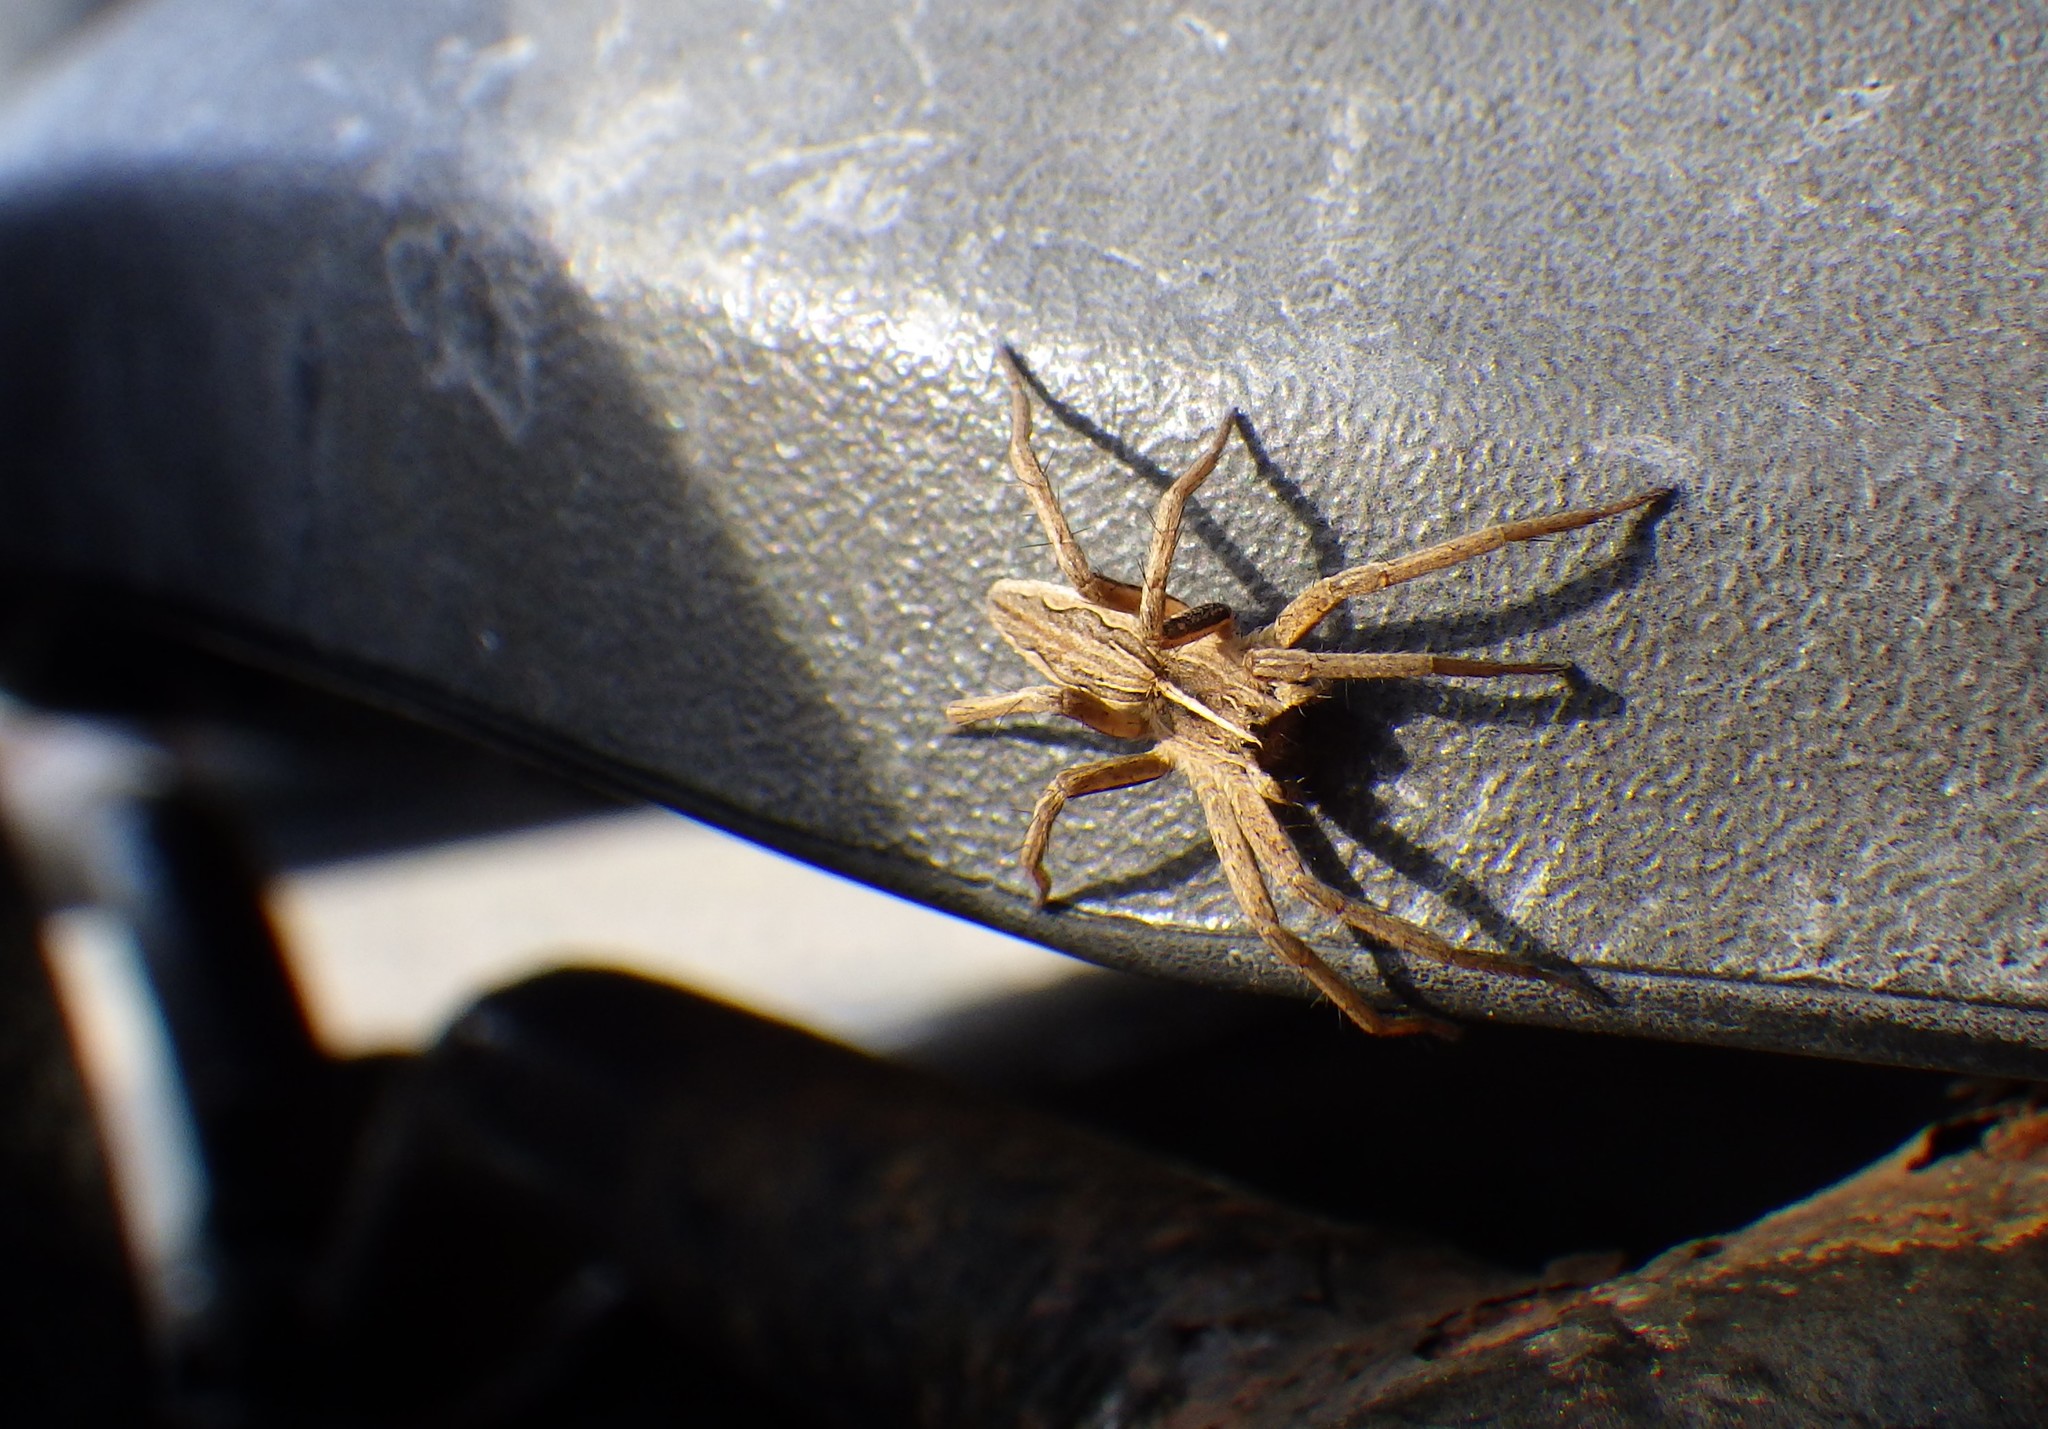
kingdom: Animalia
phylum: Arthropoda
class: Arachnida
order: Araneae
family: Pisauridae
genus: Pisaura
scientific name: Pisaura mirabilis
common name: Tent spider
